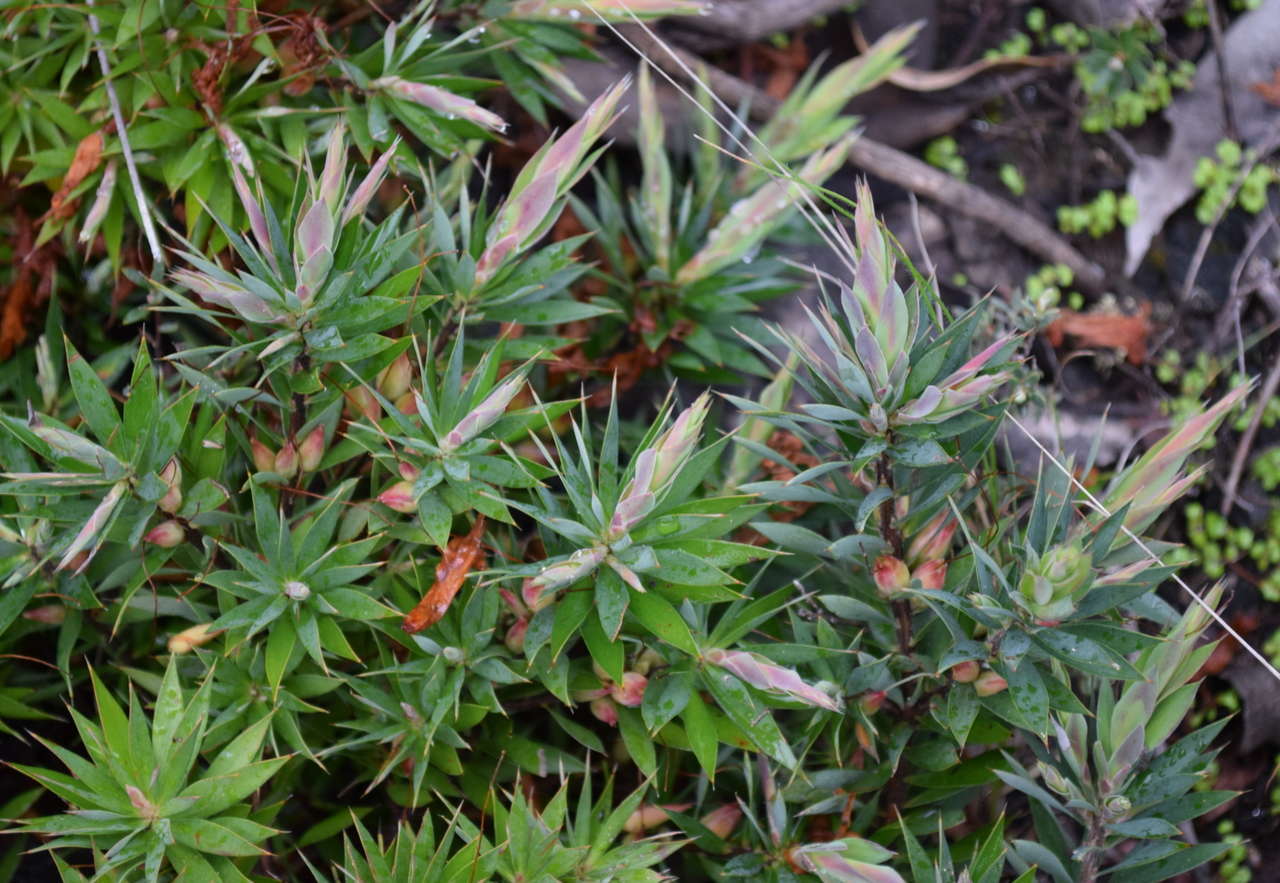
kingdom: Plantae
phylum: Tracheophyta
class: Magnoliopsida
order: Ericales
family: Ericaceae
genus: Styphelia
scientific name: Styphelia adscendens
